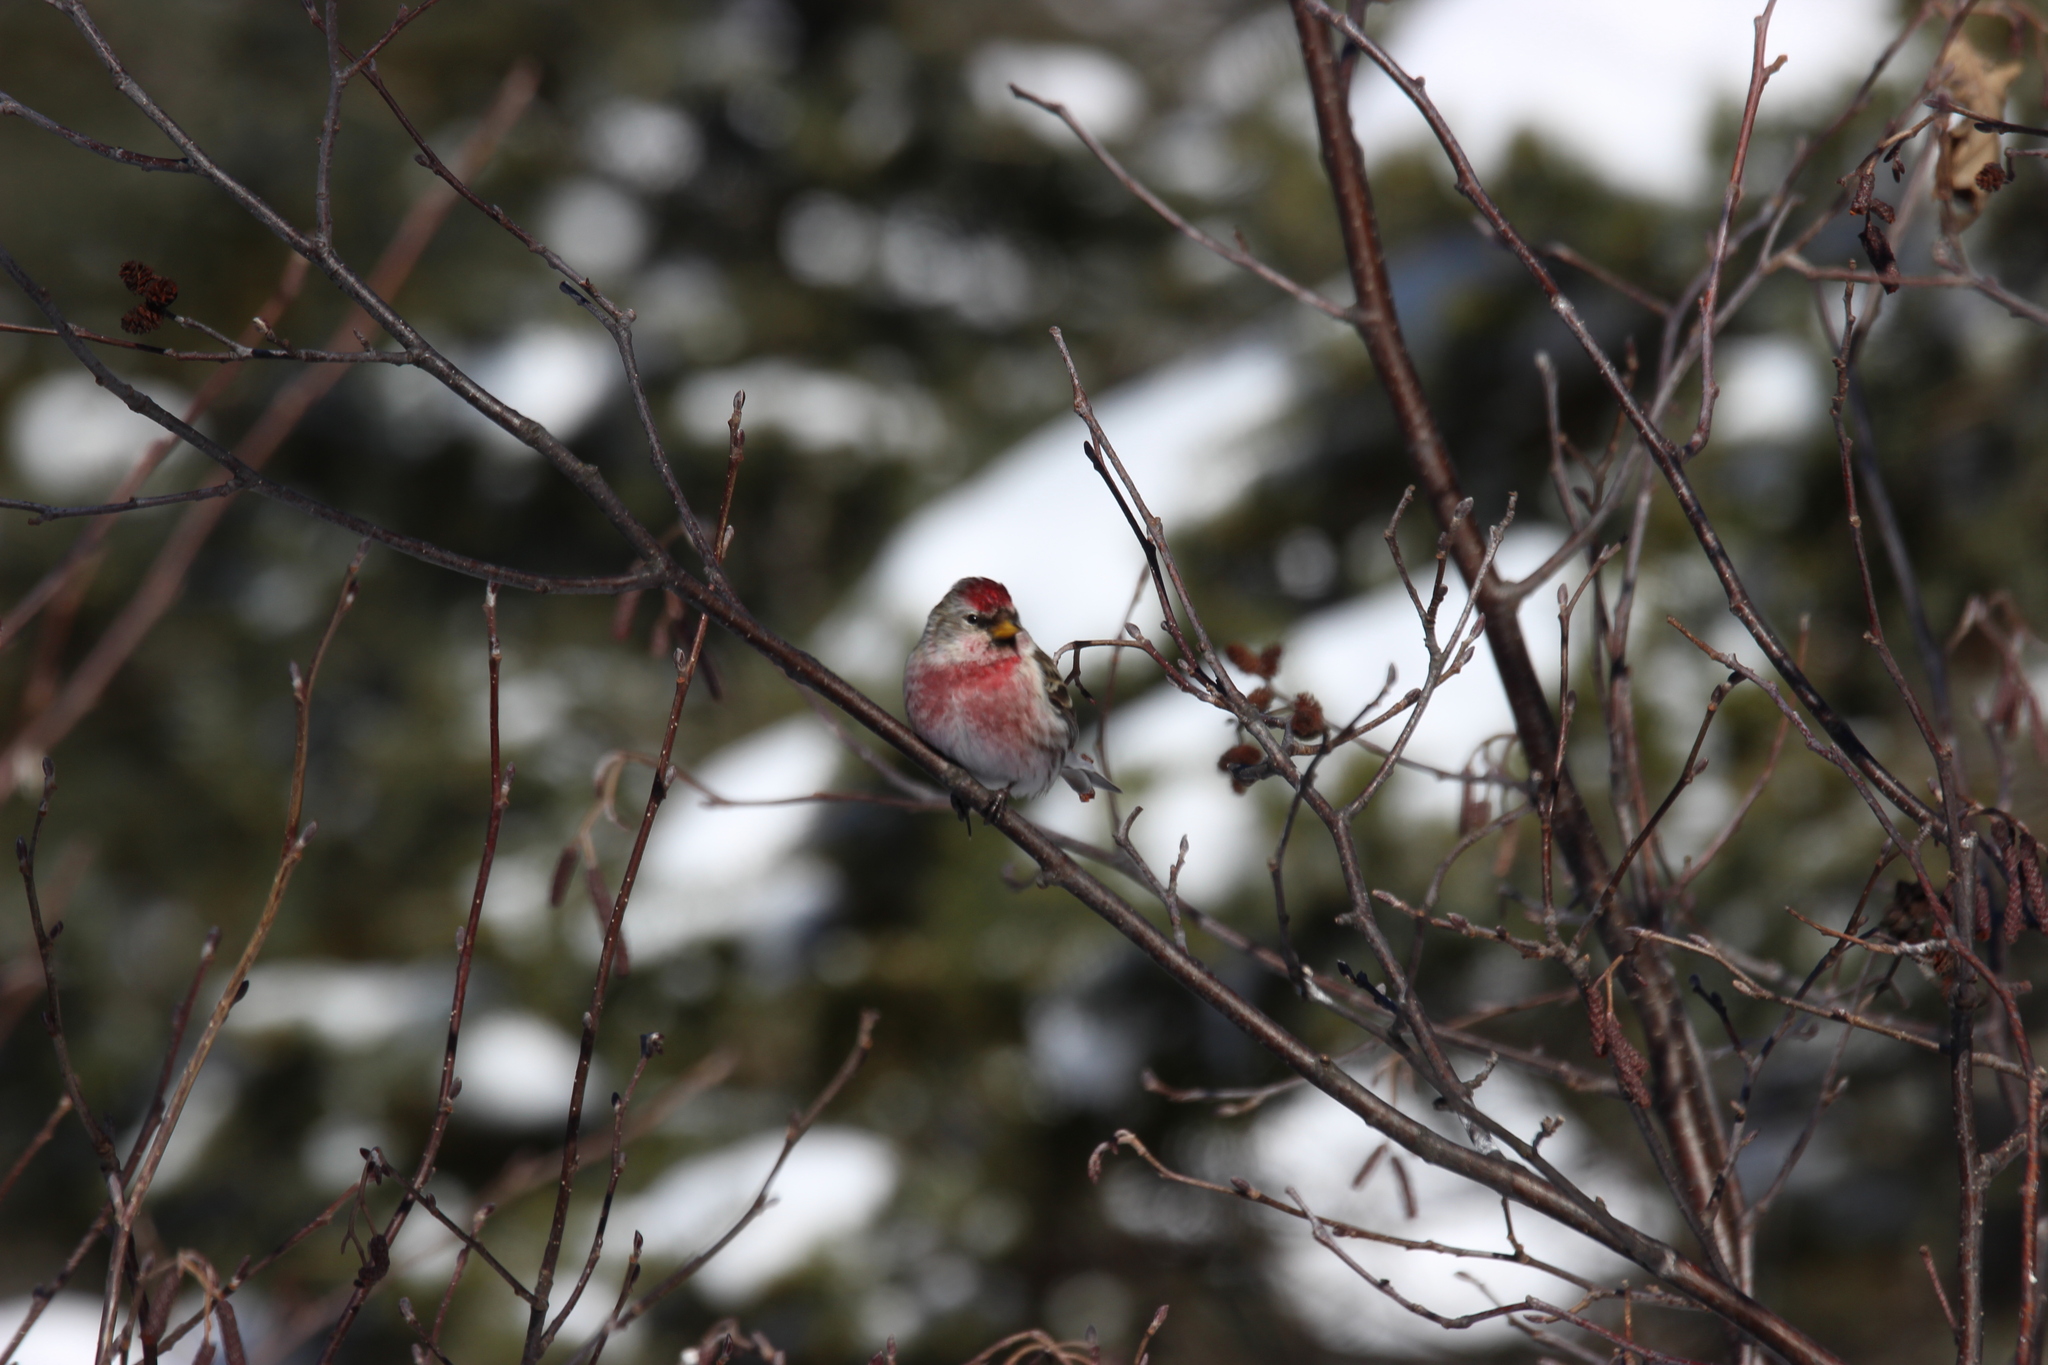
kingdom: Animalia
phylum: Chordata
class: Aves
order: Passeriformes
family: Fringillidae
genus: Acanthis
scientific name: Acanthis flammea
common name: Common redpoll
